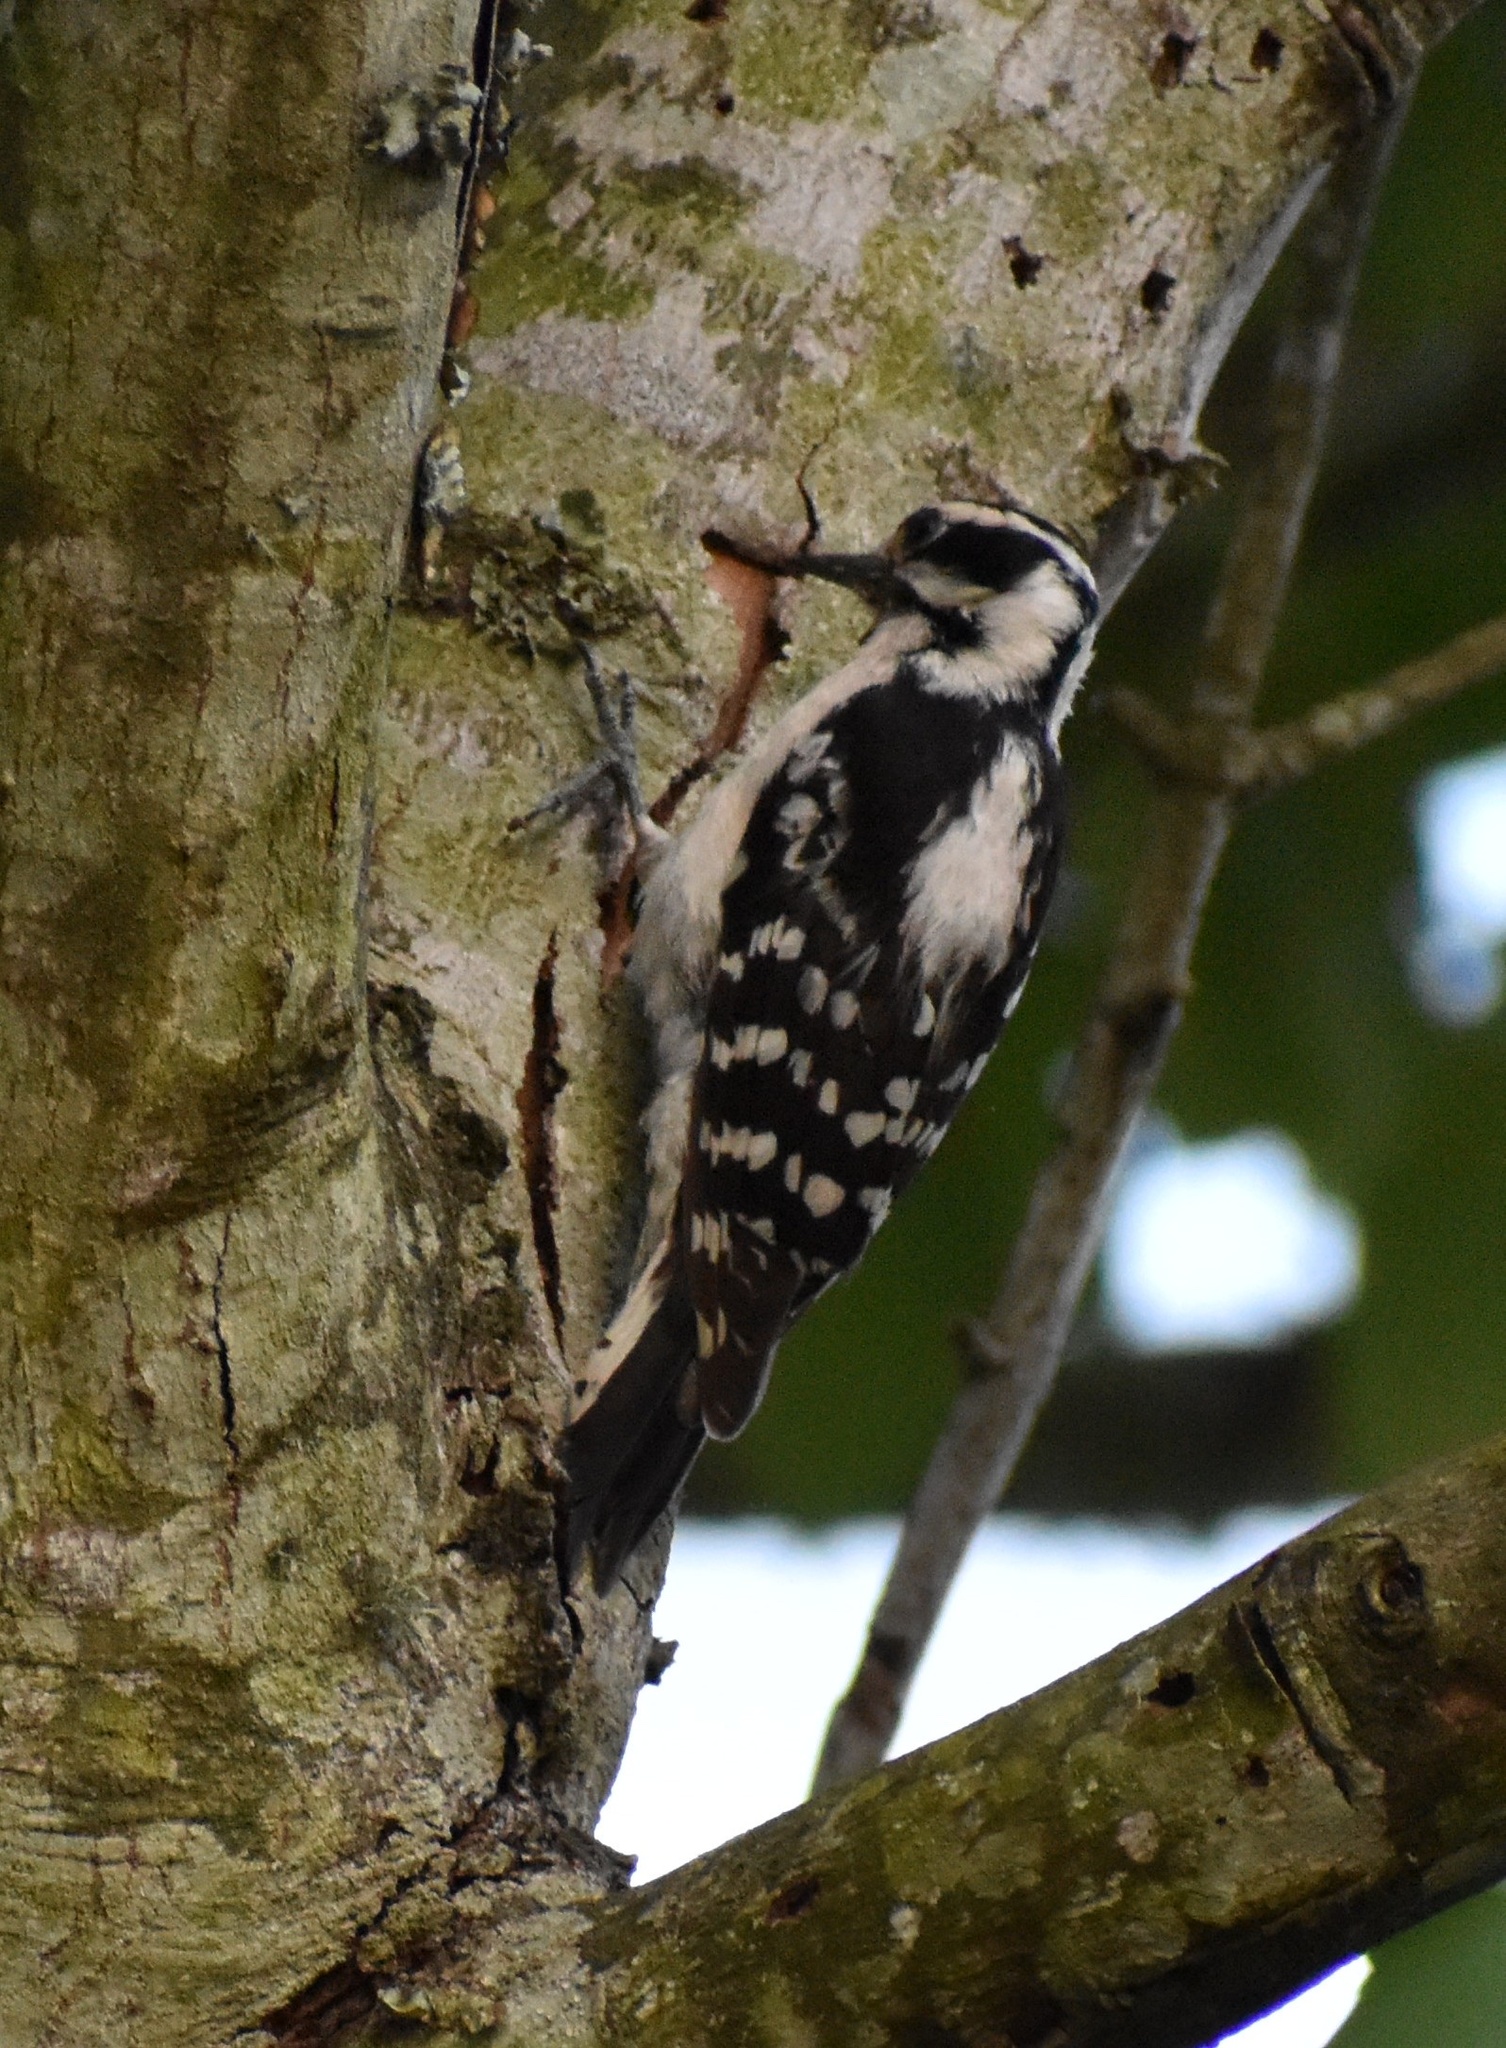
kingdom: Animalia
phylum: Chordata
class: Aves
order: Piciformes
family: Picidae
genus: Dryobates
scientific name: Dryobates pubescens
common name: Downy woodpecker
